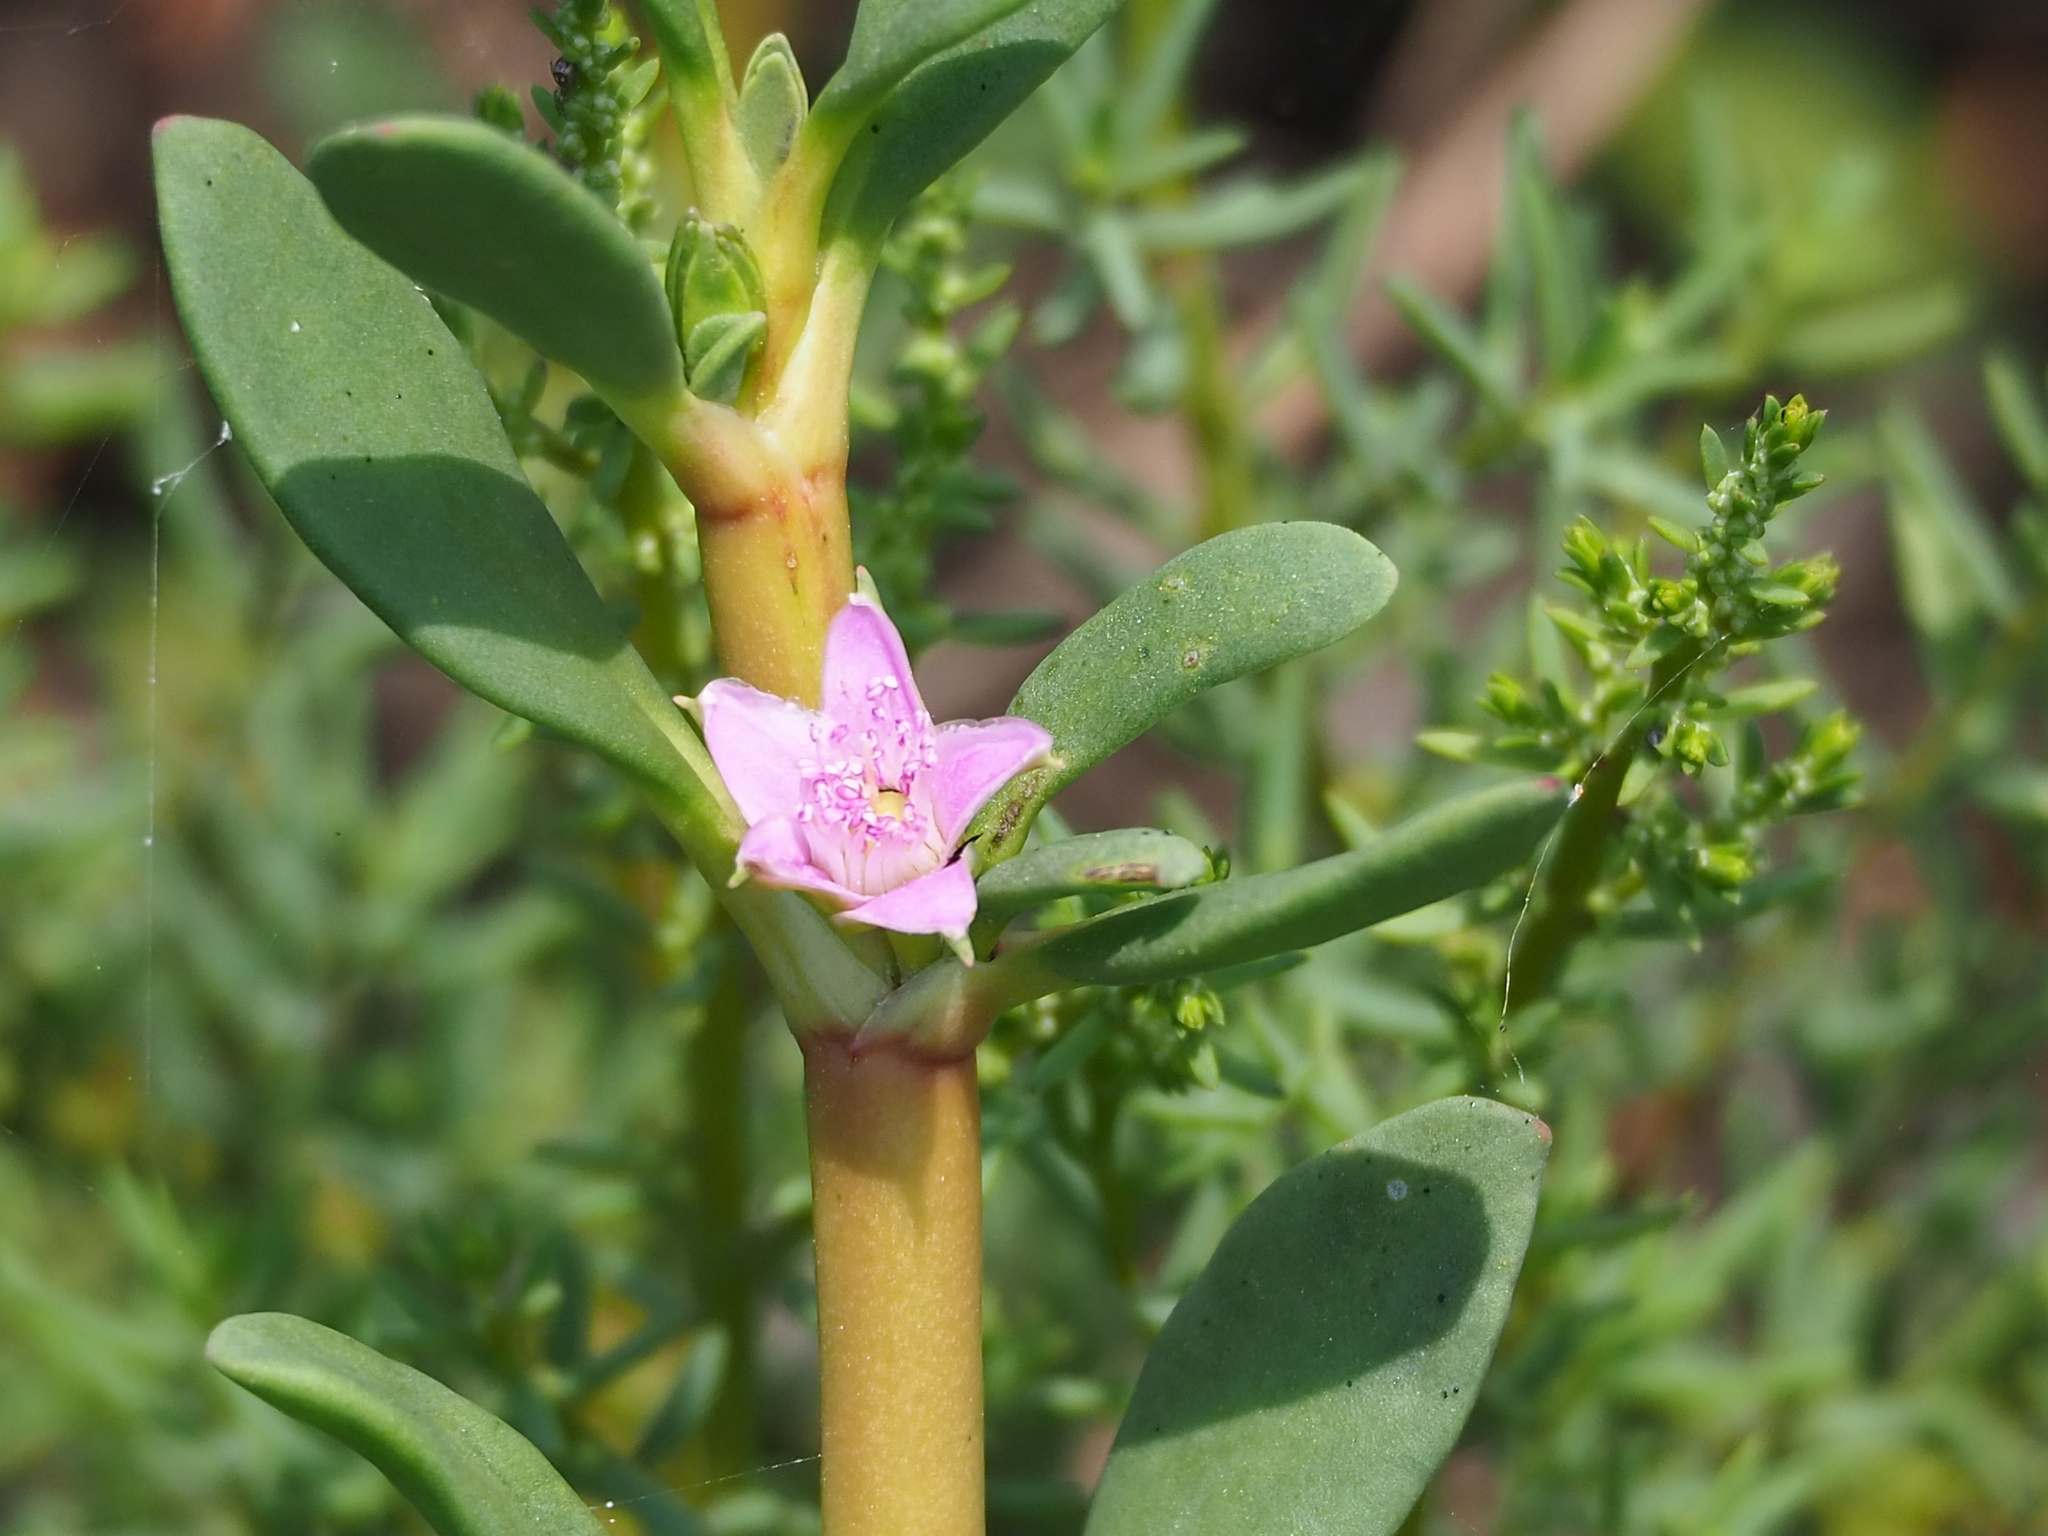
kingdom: Plantae
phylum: Tracheophyta
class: Magnoliopsida
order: Caryophyllales
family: Aizoaceae
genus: Sesuvium
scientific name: Sesuvium portulacastrum
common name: Sea-purslane
